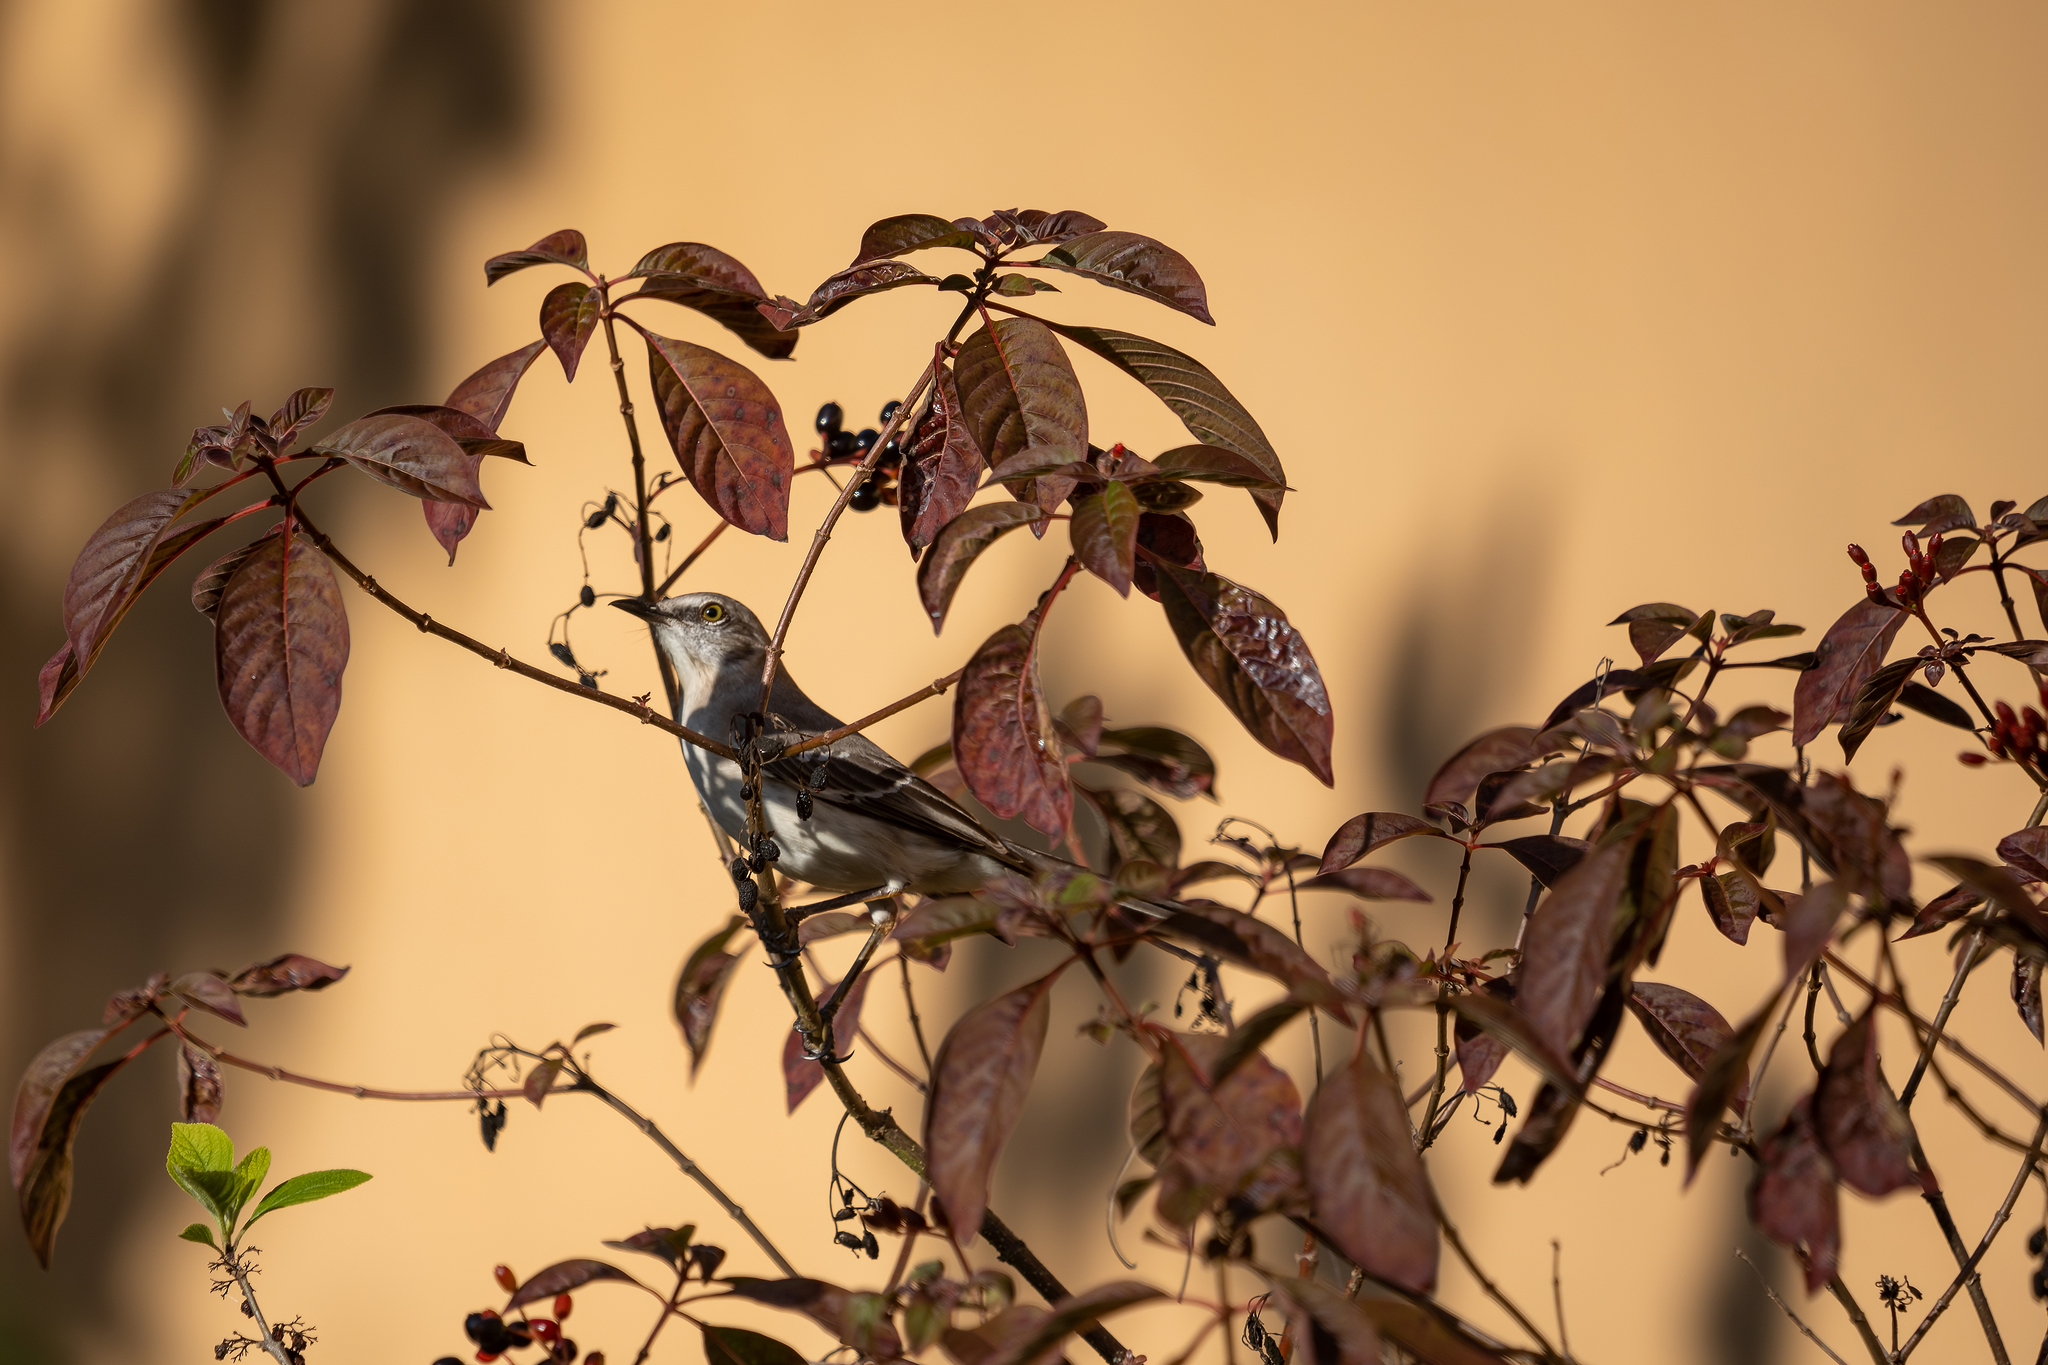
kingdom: Animalia
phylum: Chordata
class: Aves
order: Passeriformes
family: Mimidae
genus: Mimus
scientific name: Mimus polyglottos
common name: Northern mockingbird
